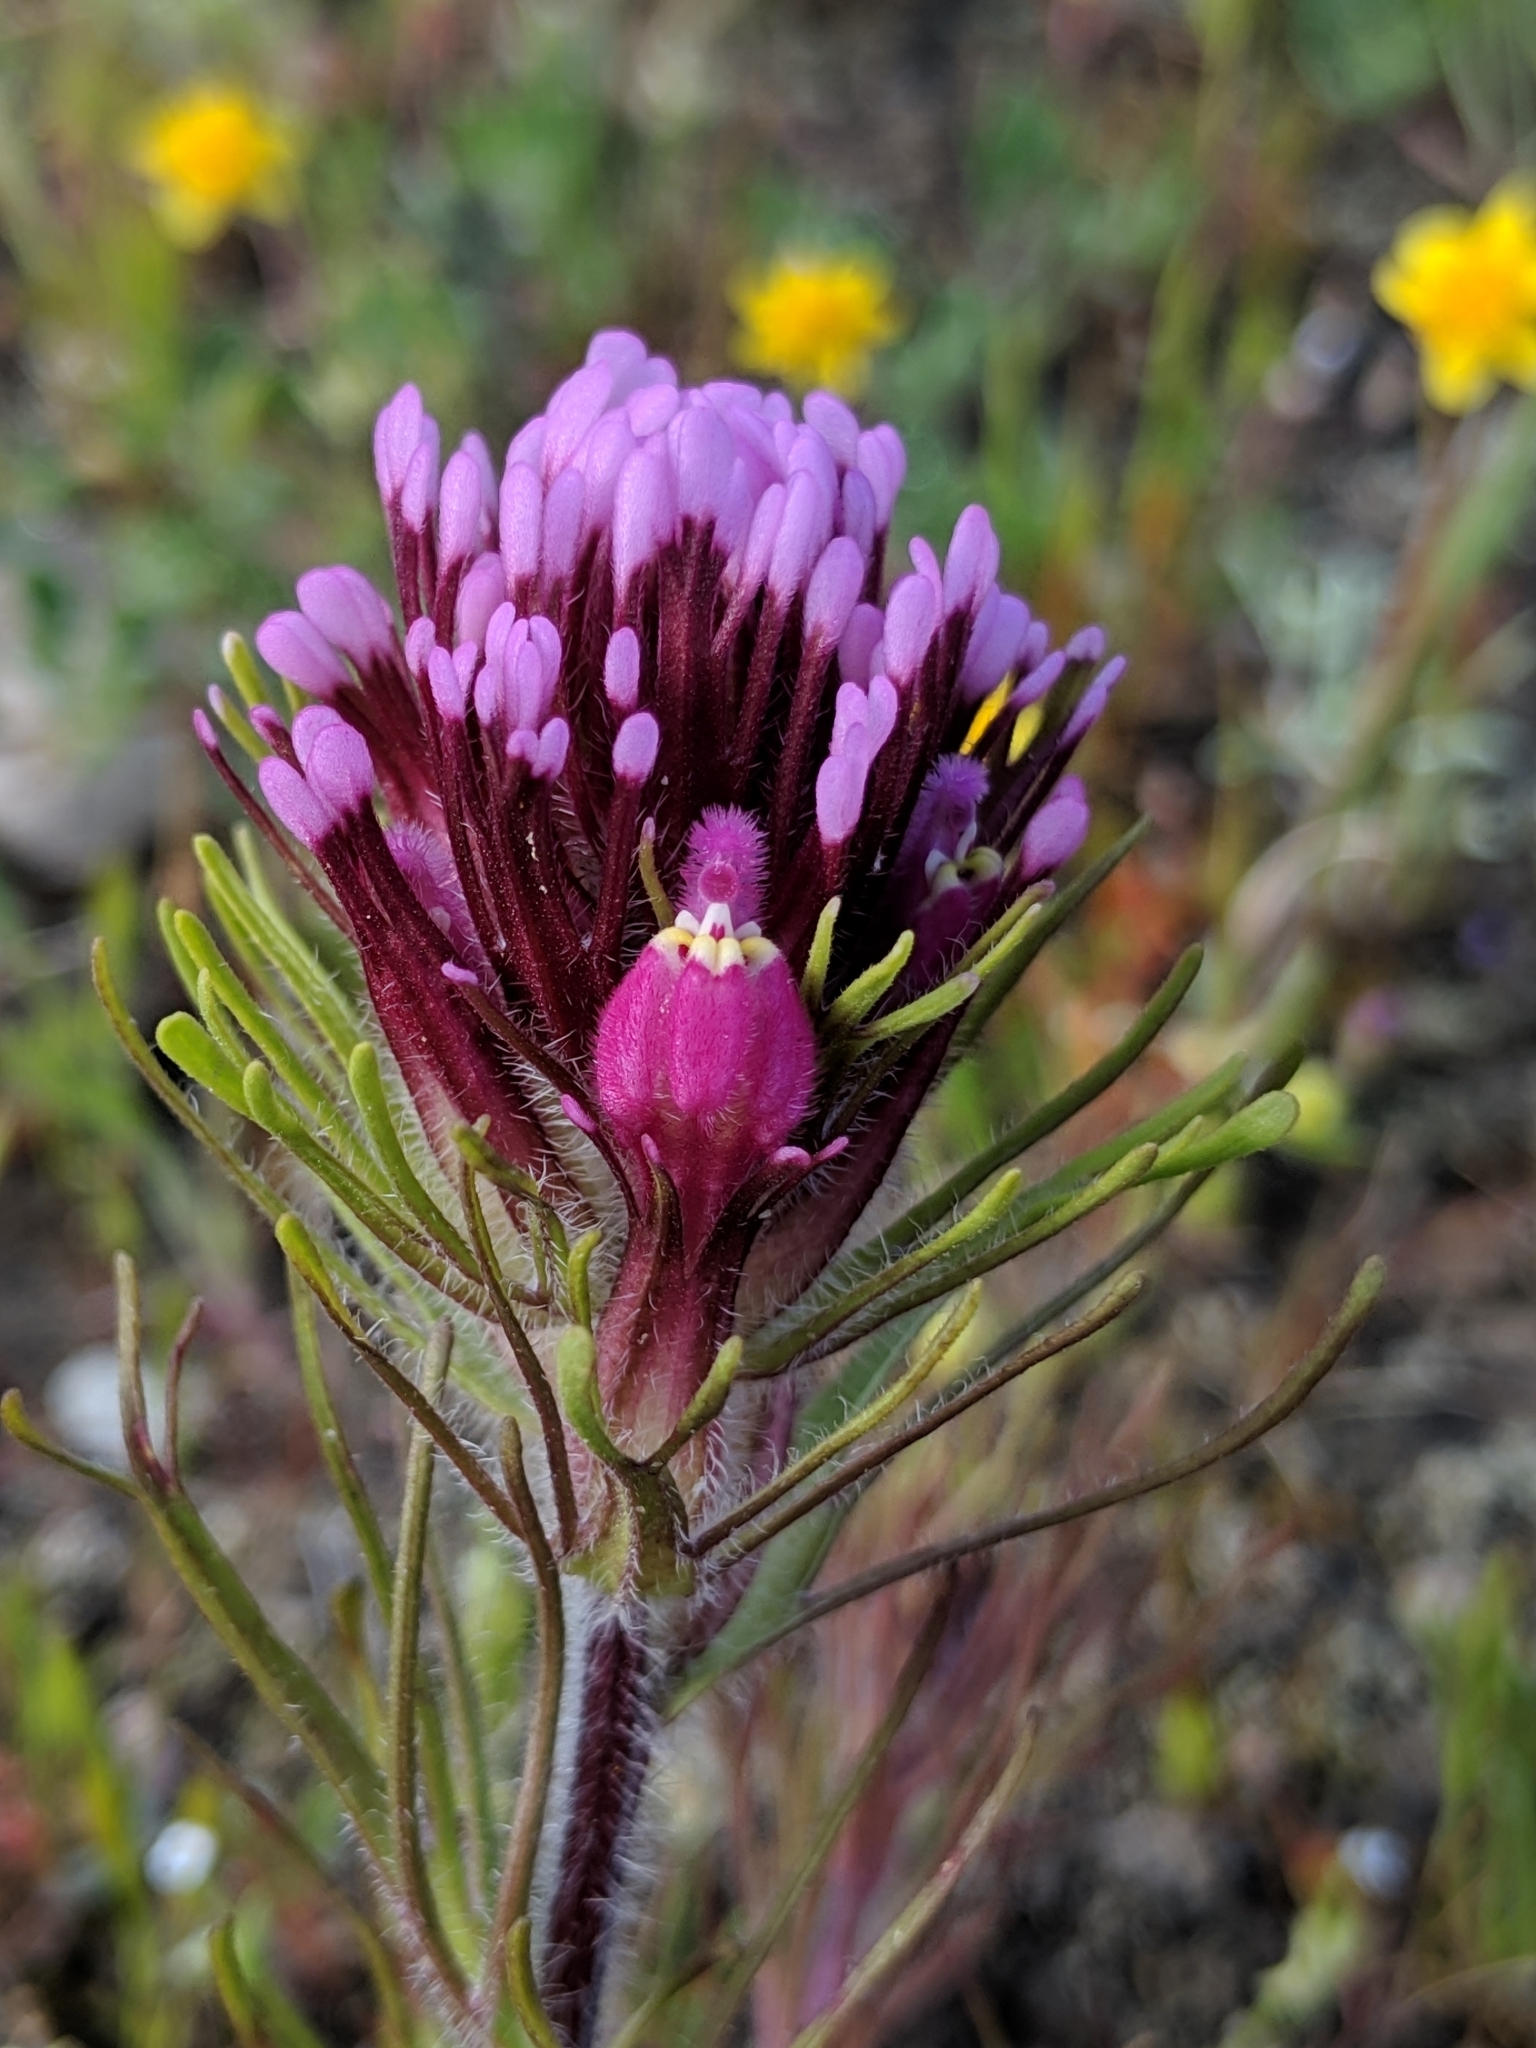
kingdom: Plantae
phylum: Tracheophyta
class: Magnoliopsida
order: Lamiales
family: Orobanchaceae
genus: Castilleja
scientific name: Castilleja exserta
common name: Purple owl-clover
